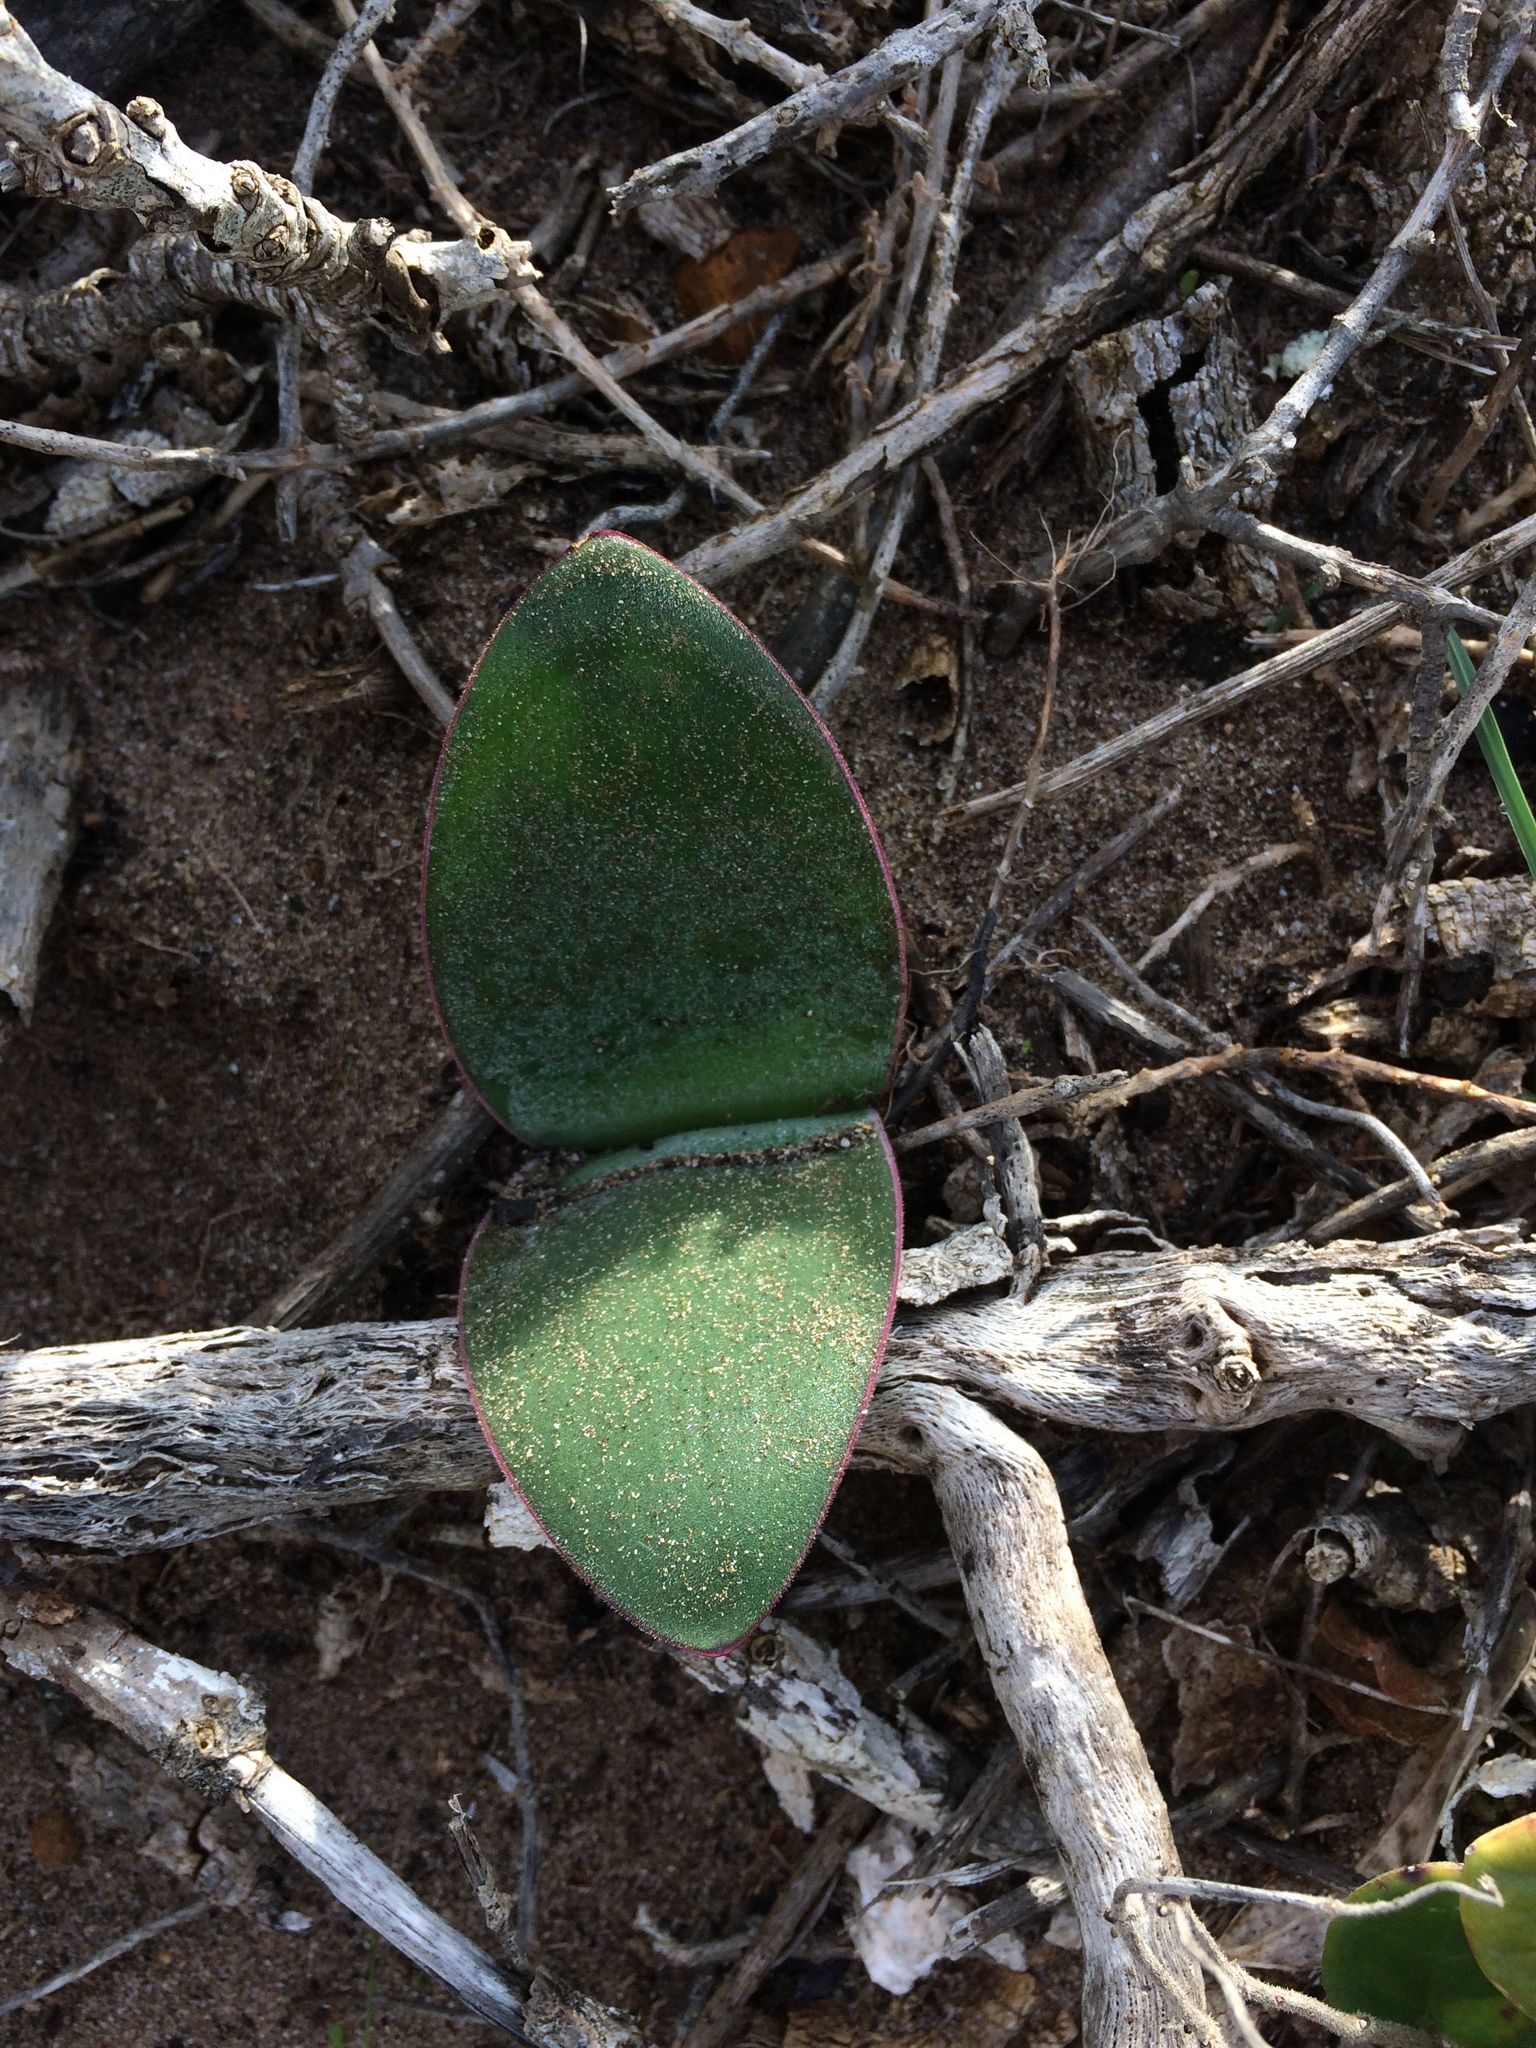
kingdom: Plantae
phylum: Tracheophyta
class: Liliopsida
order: Asparagales
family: Amaryllidaceae
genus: Haemanthus
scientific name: Haemanthus sanguineus
